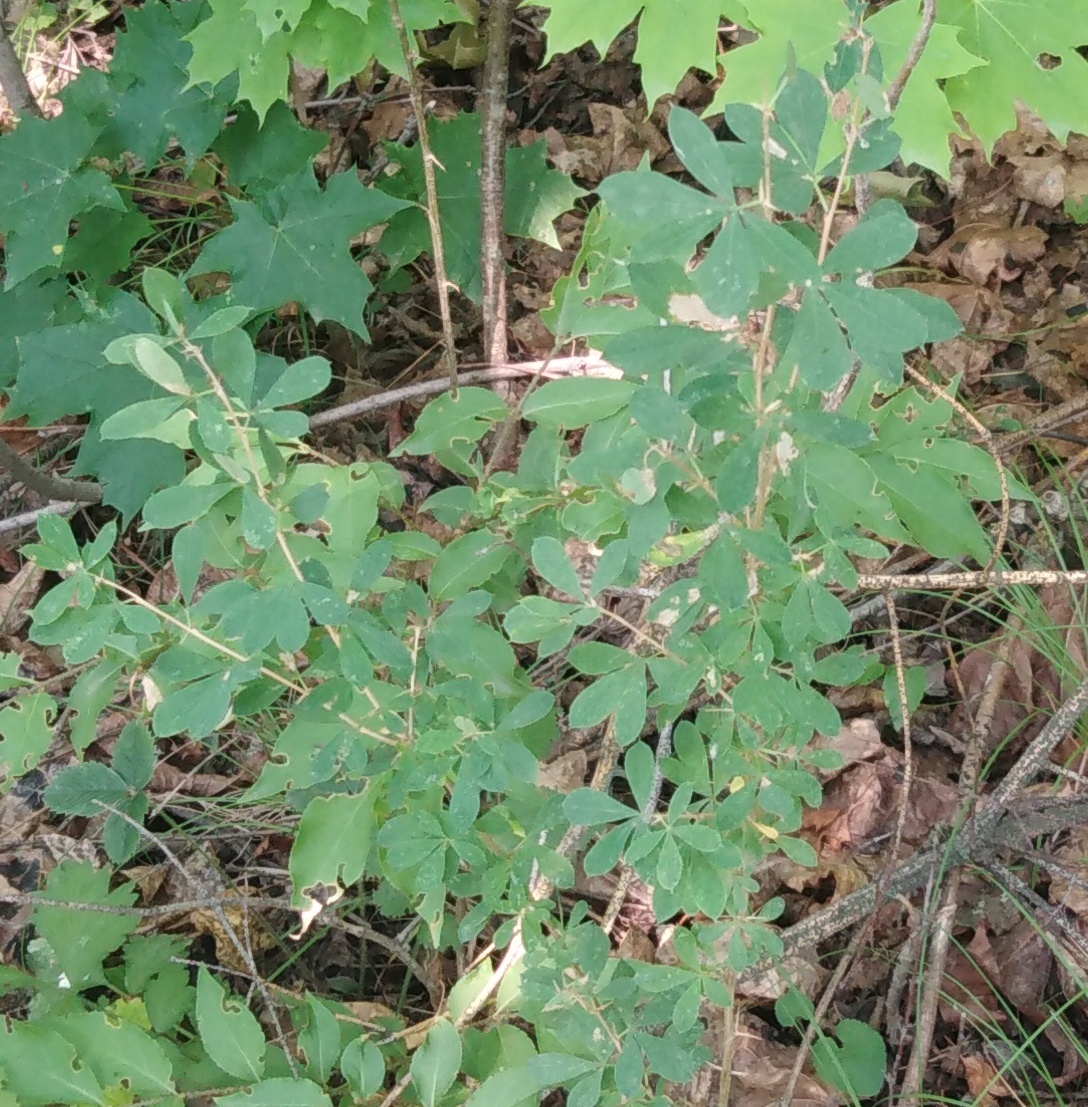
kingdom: Plantae
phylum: Tracheophyta
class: Magnoliopsida
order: Fabales
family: Fabaceae
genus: Caragana
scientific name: Caragana frutex
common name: Russian peashrub
